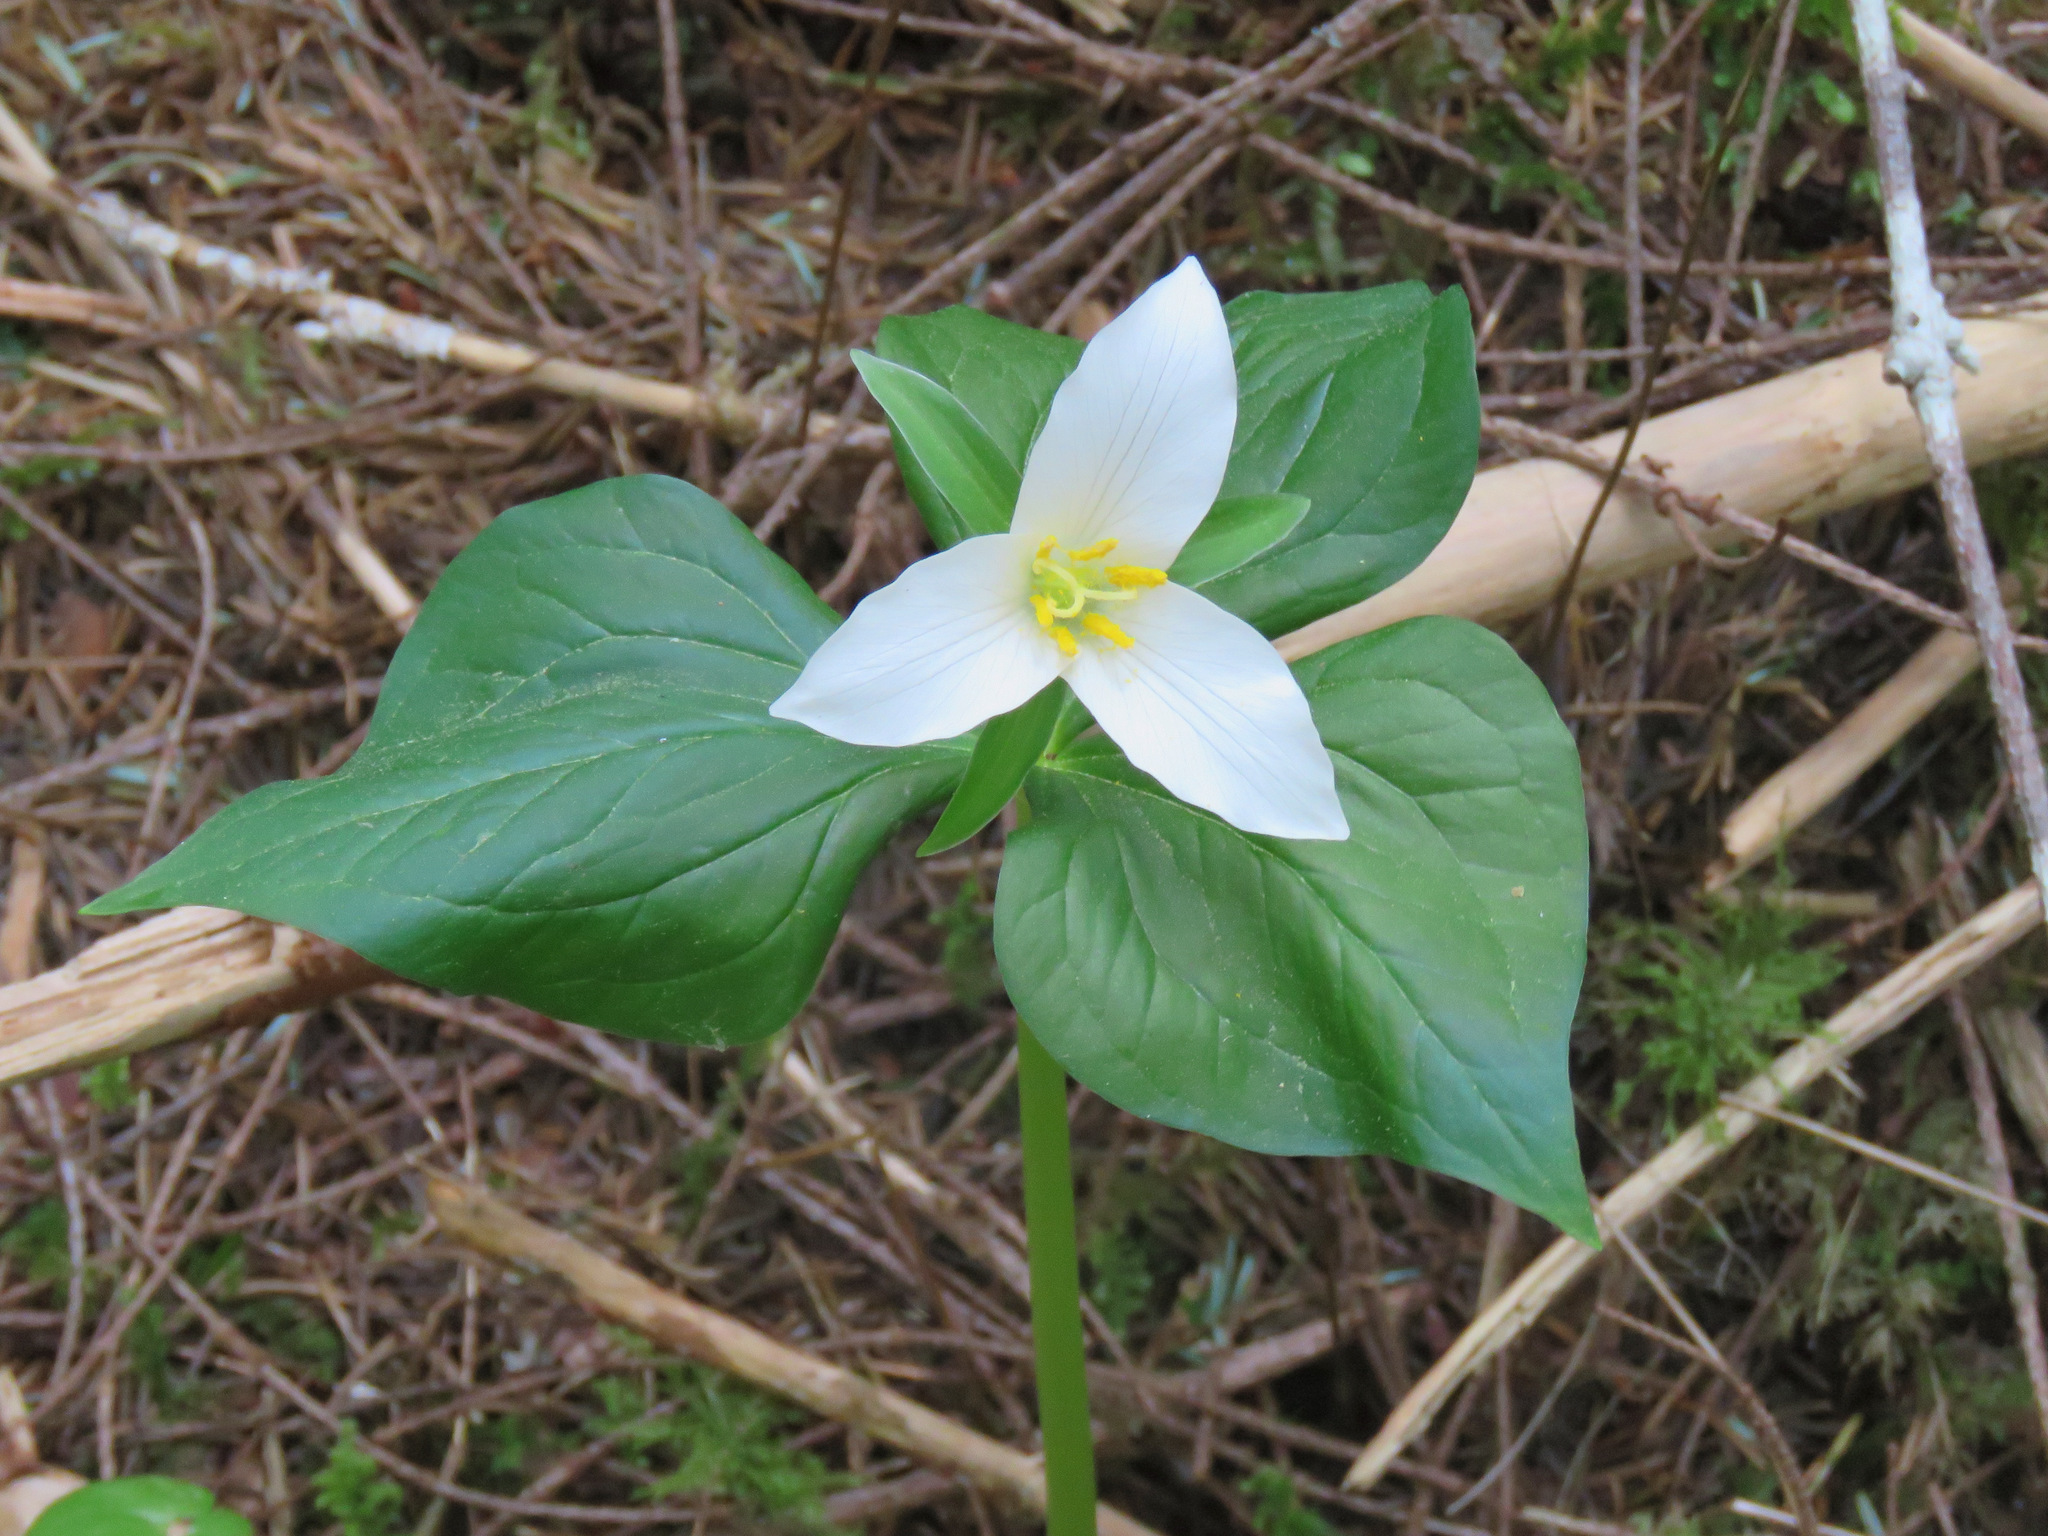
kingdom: Plantae
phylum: Tracheophyta
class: Liliopsida
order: Liliales
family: Melanthiaceae
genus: Trillium
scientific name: Trillium ovatum
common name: Pacific trillium
